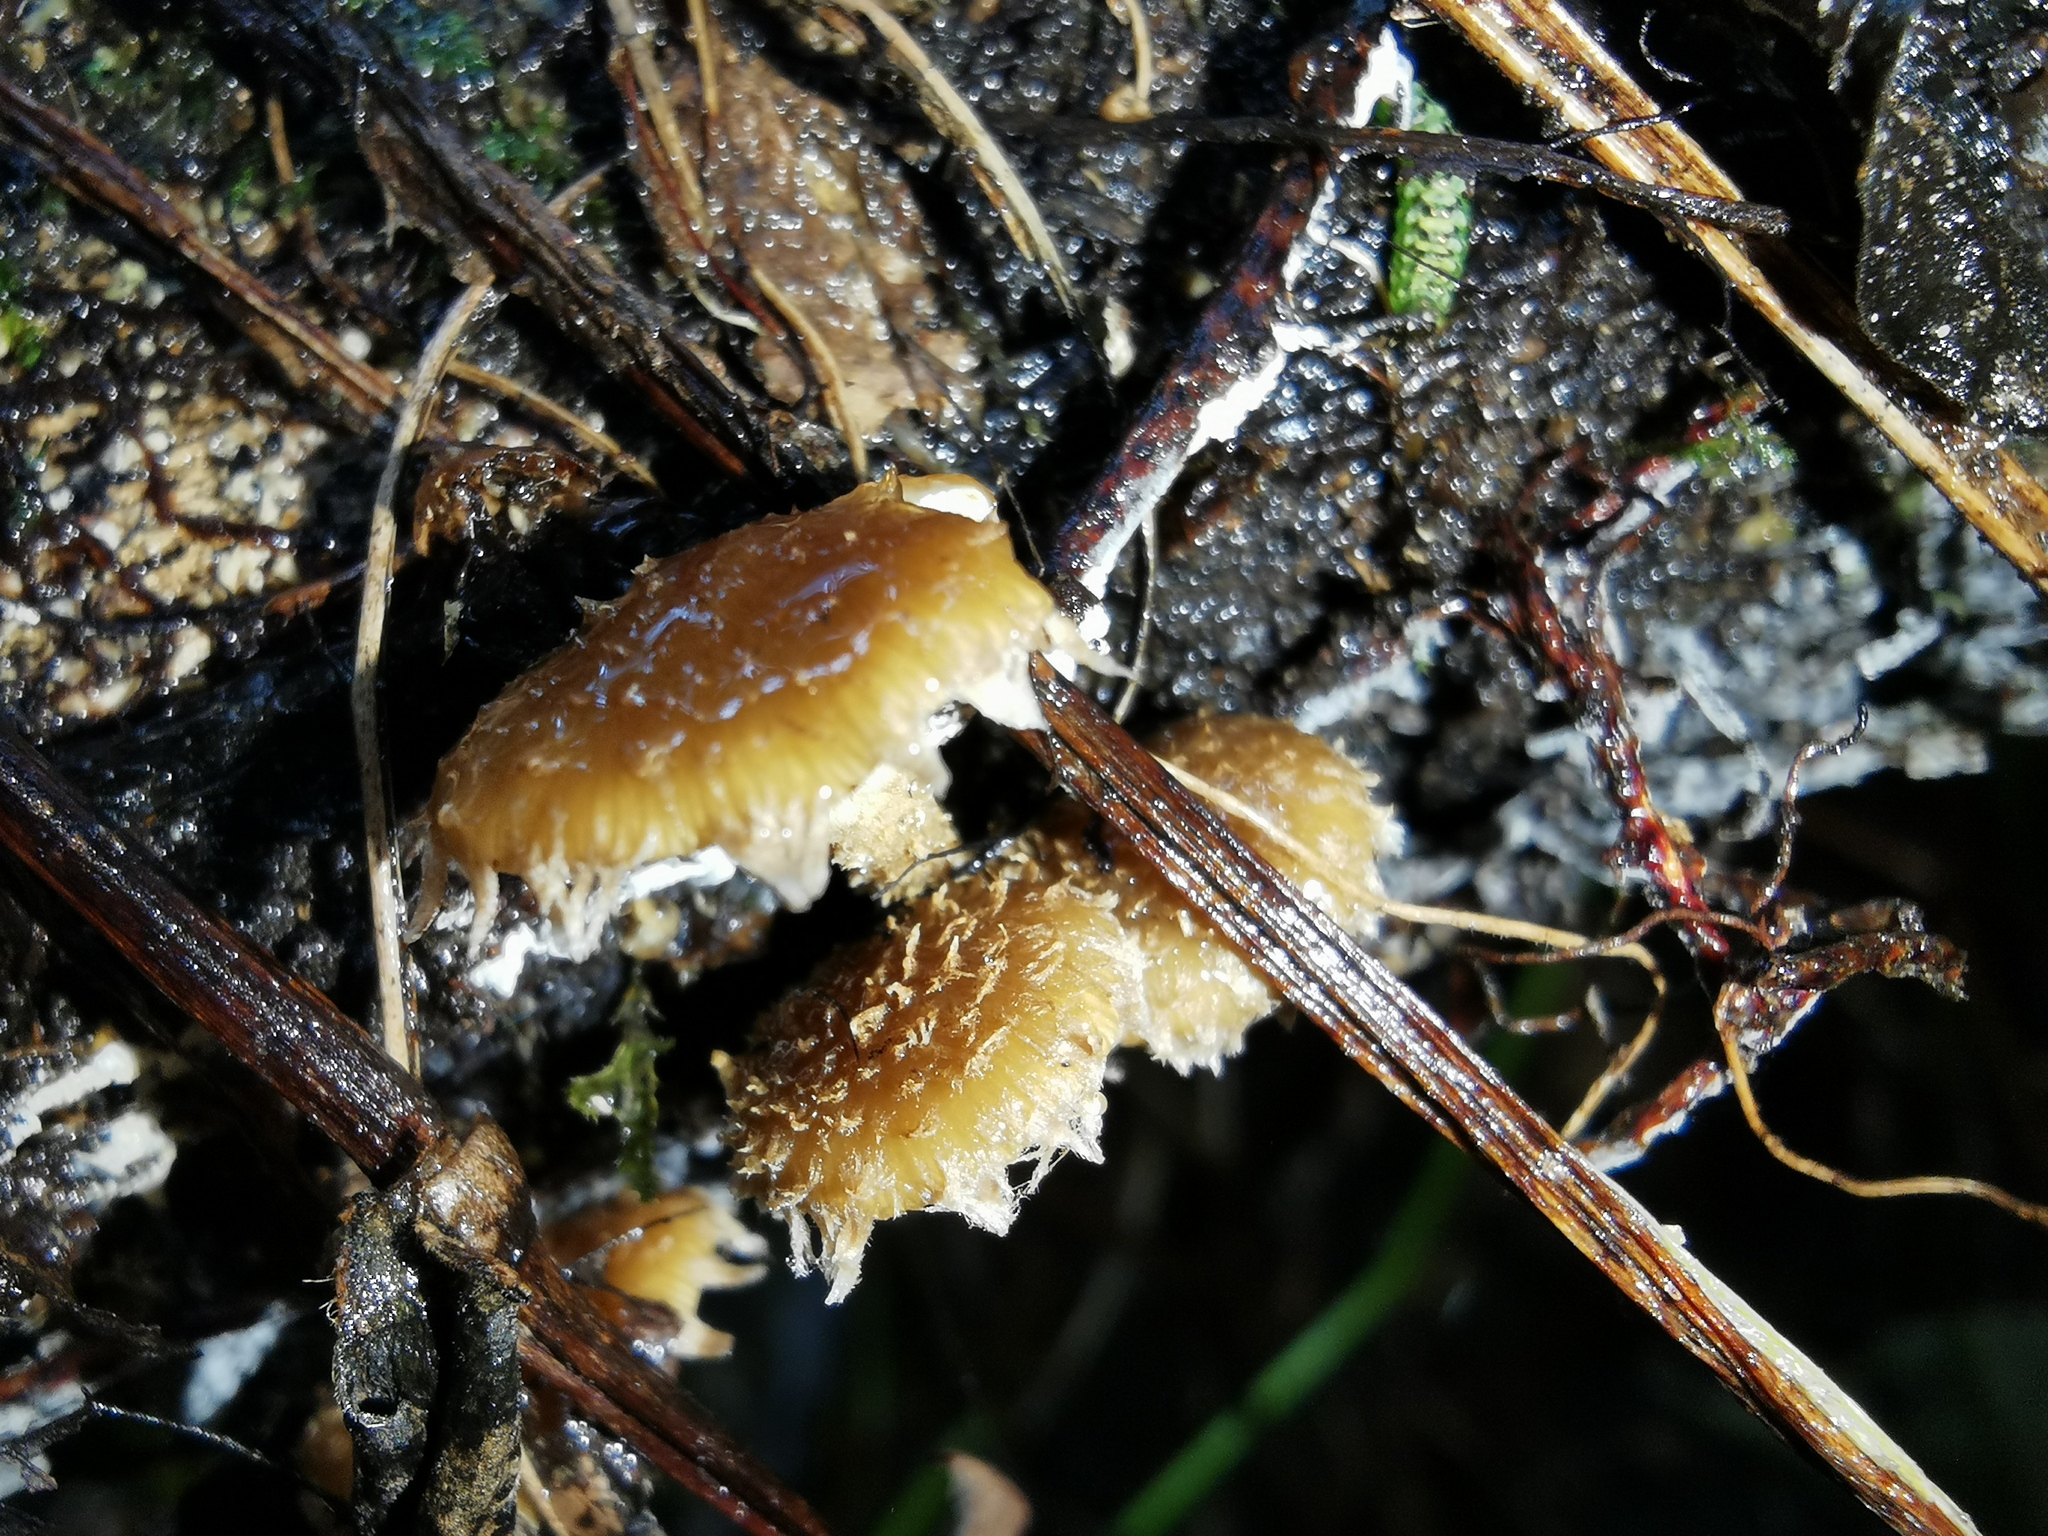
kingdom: Fungi
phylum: Basidiomycota
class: Agaricomycetes
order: Agaricales
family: Strophariaceae
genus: Pholiota
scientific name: Pholiota subflammans
